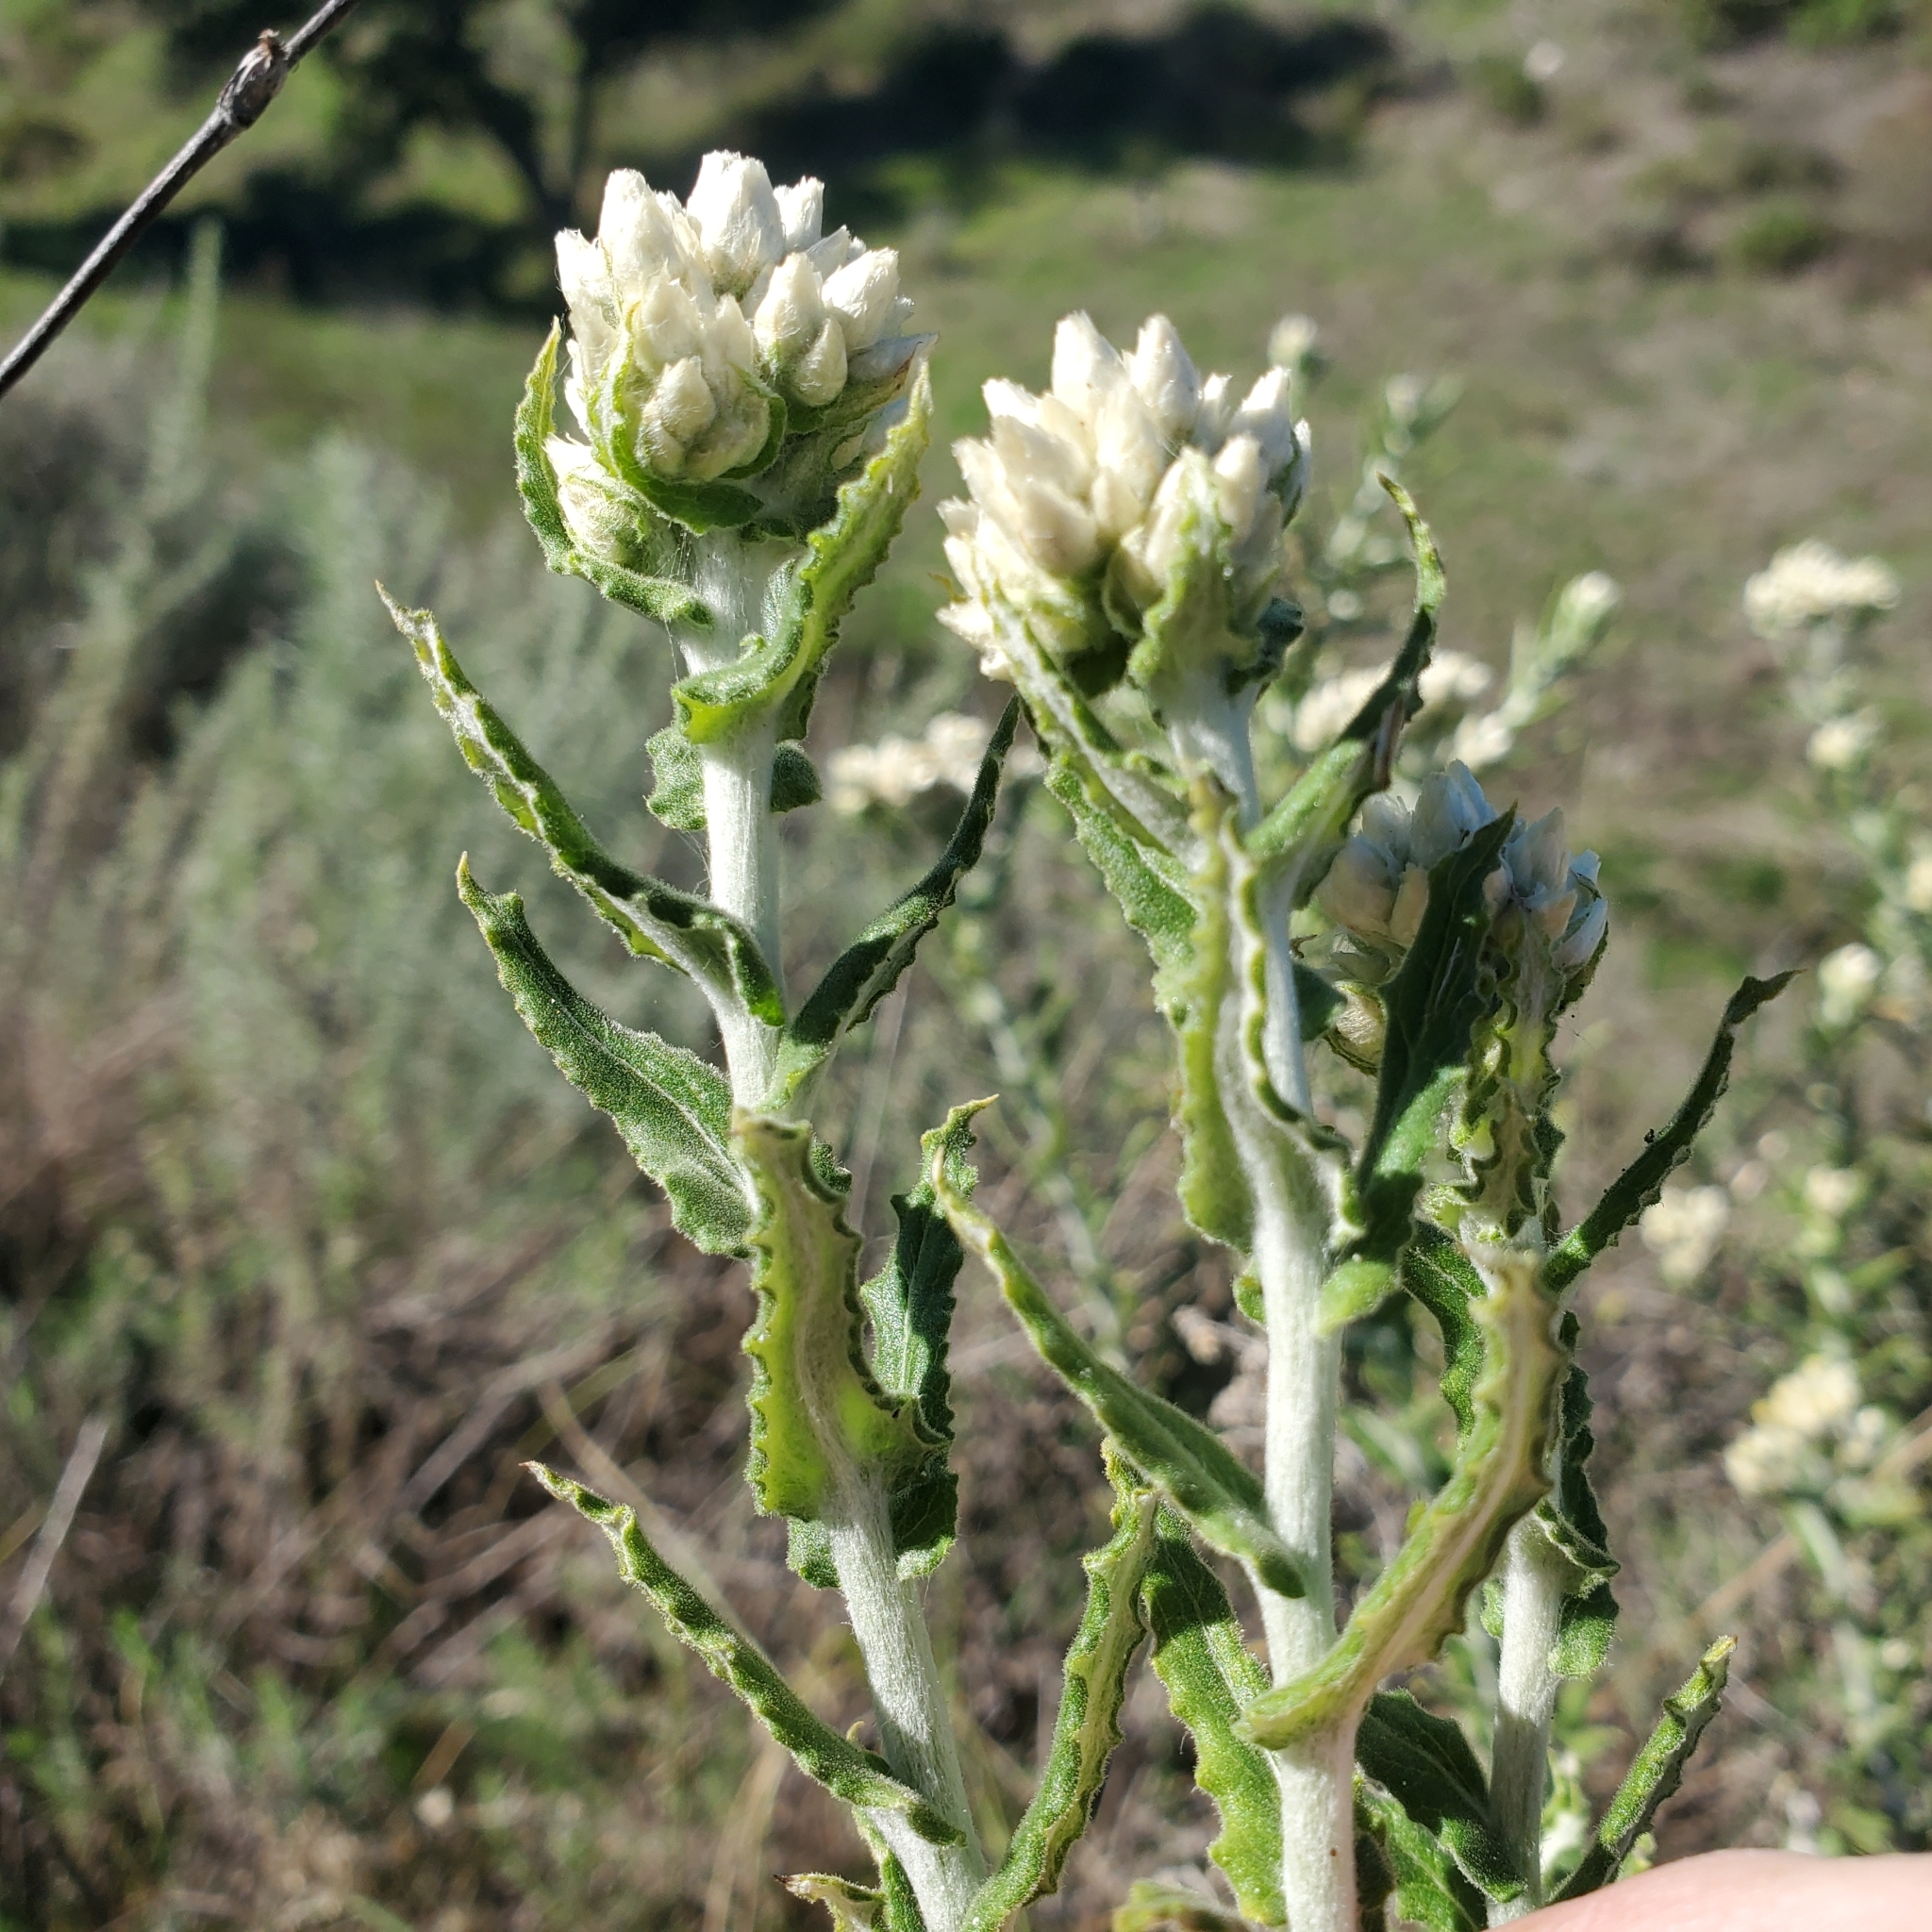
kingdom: Plantae
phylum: Tracheophyta
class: Magnoliopsida
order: Asterales
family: Asteraceae
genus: Pseudognaphalium
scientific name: Pseudognaphalium biolettii
